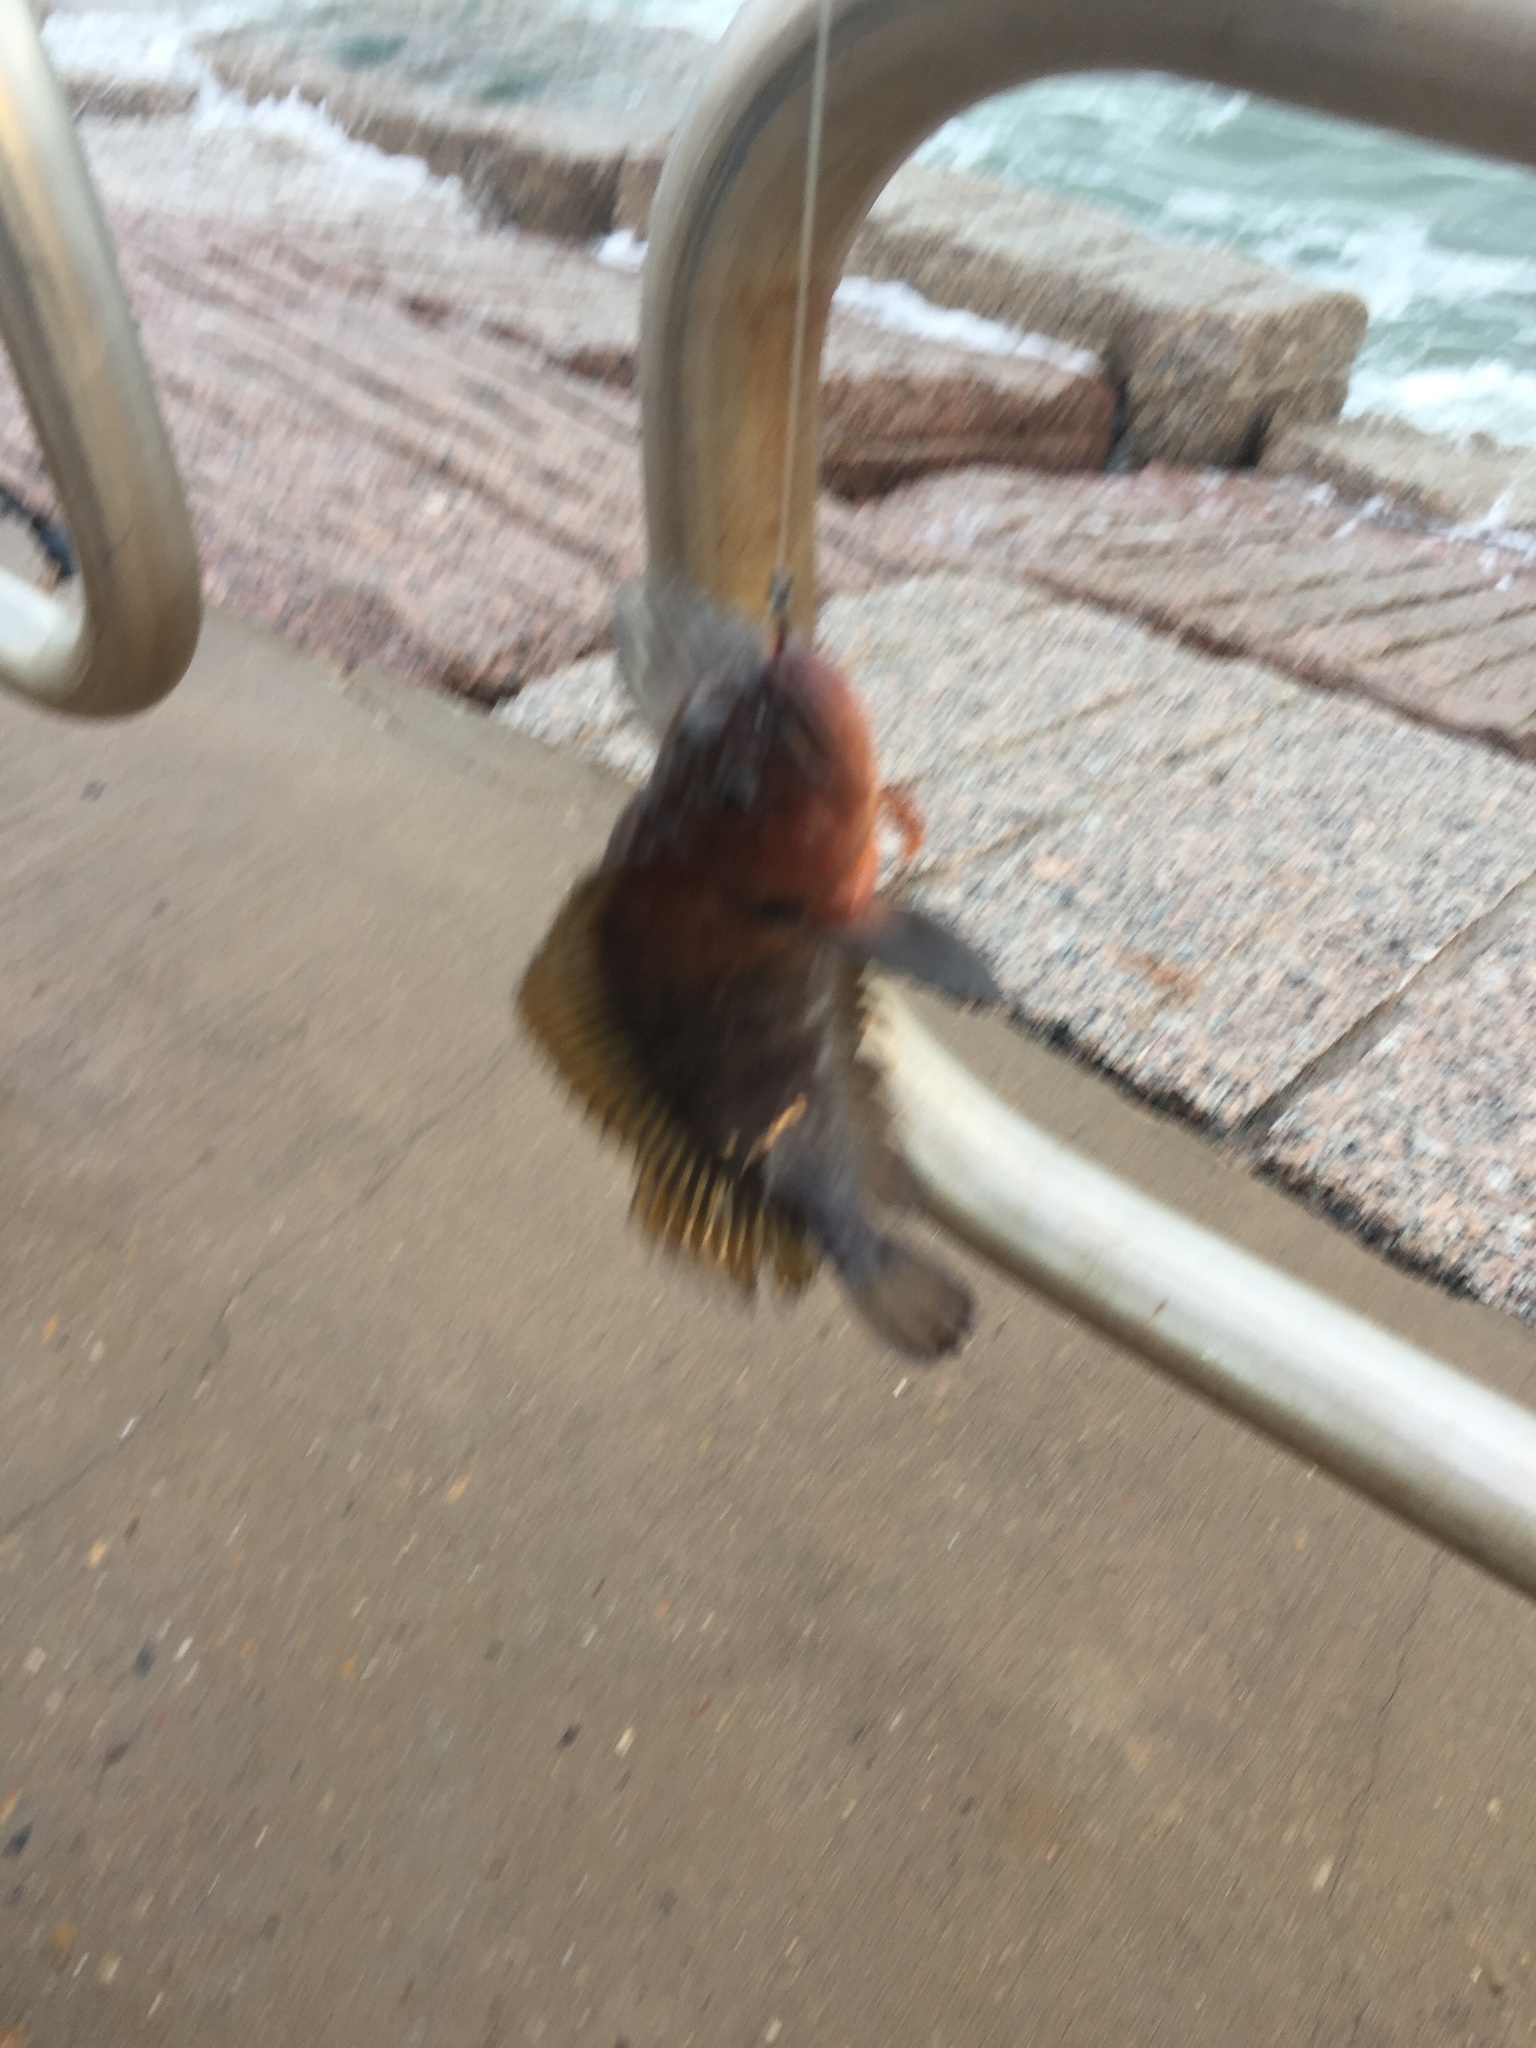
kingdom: Animalia
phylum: Chordata
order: Perciformes
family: Labrisomidae
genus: Labrisomus
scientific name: Labrisomus nuchipinnis
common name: Hairy blenny
